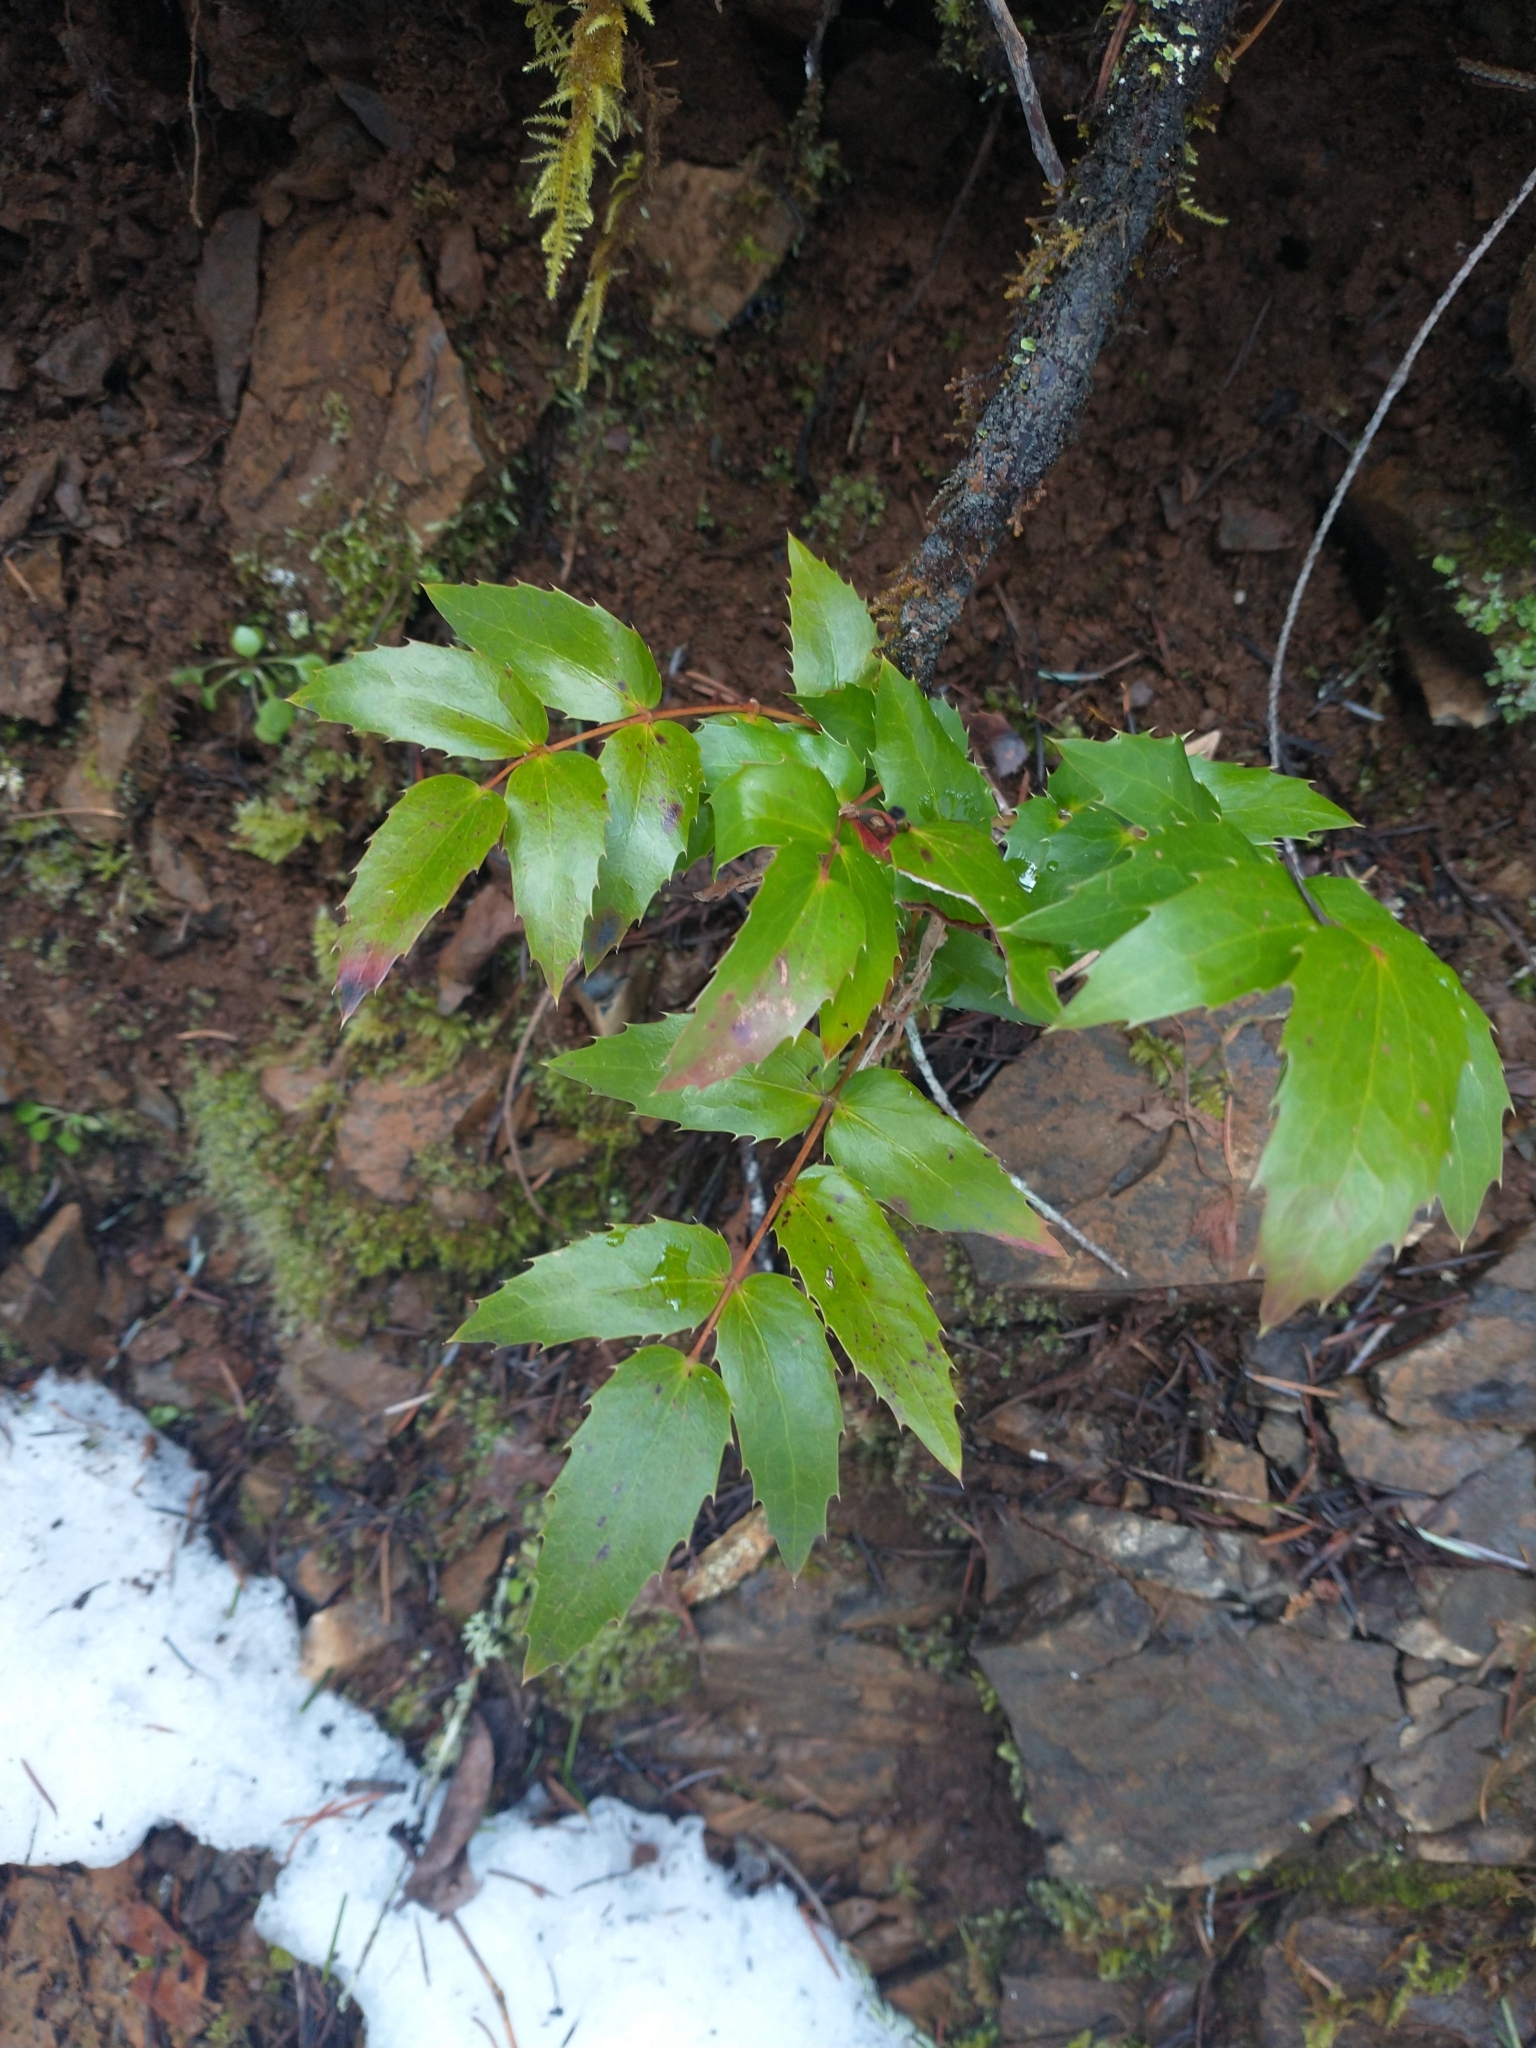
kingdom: Plantae
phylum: Tracheophyta
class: Magnoliopsida
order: Ranunculales
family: Berberidaceae
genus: Mahonia
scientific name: Mahonia nervosa
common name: Cascade oregon-grape
